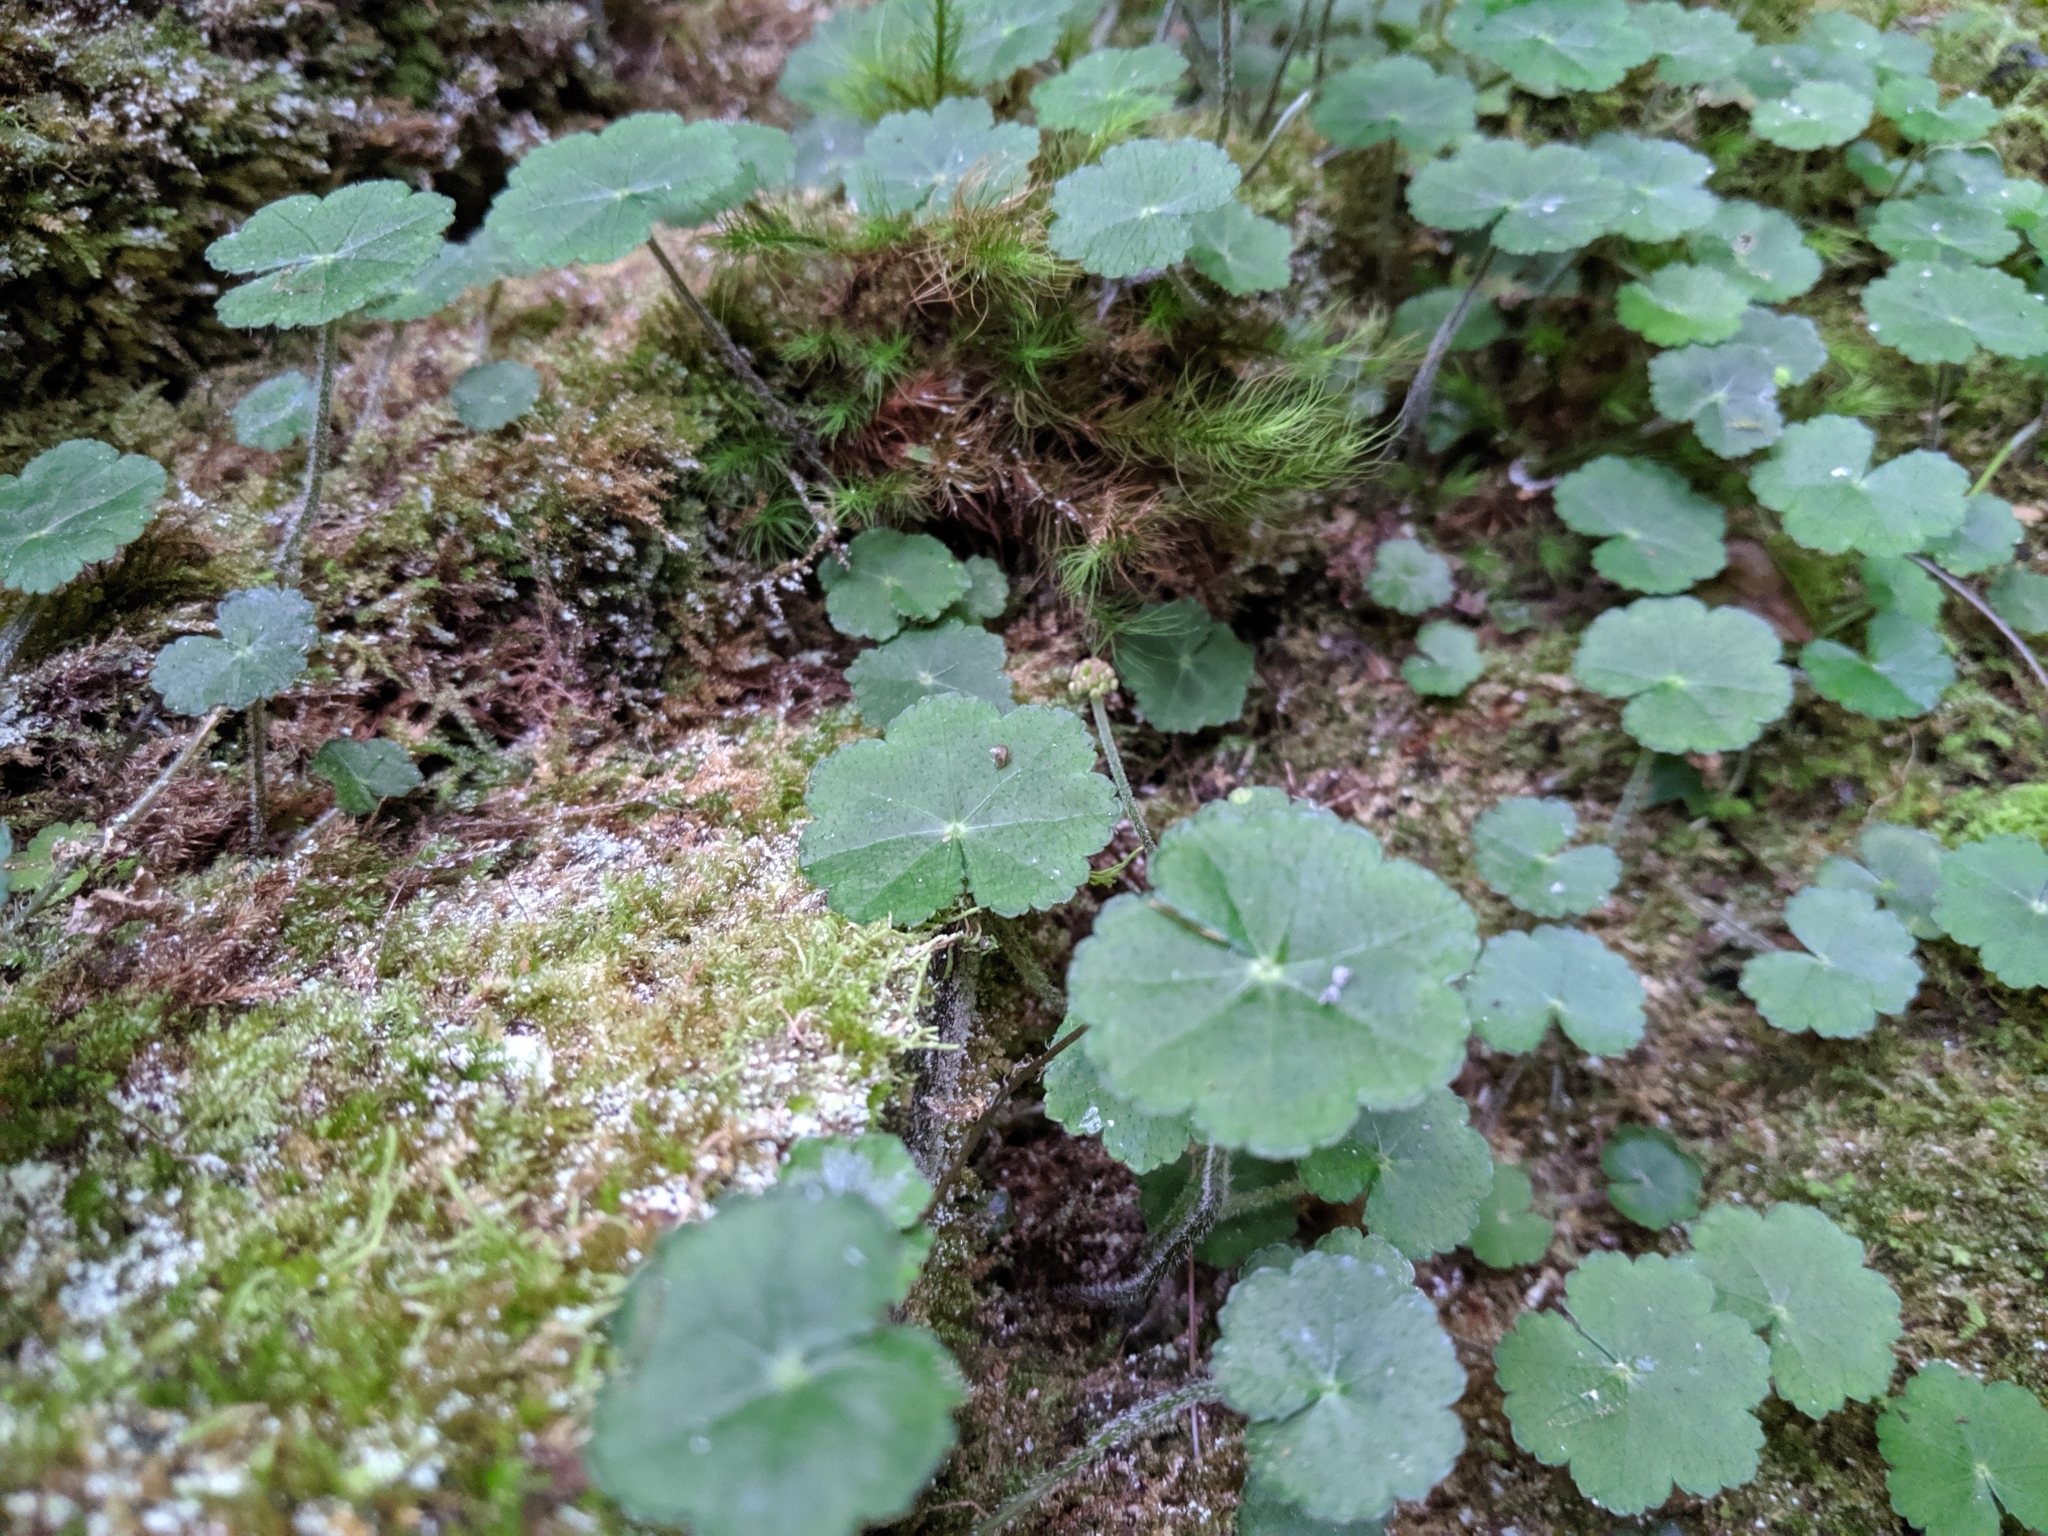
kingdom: Plantae
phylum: Tracheophyta
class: Magnoliopsida
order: Apiales
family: Araliaceae
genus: Hydrocotyle
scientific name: Hydrocotyle nepalensis
